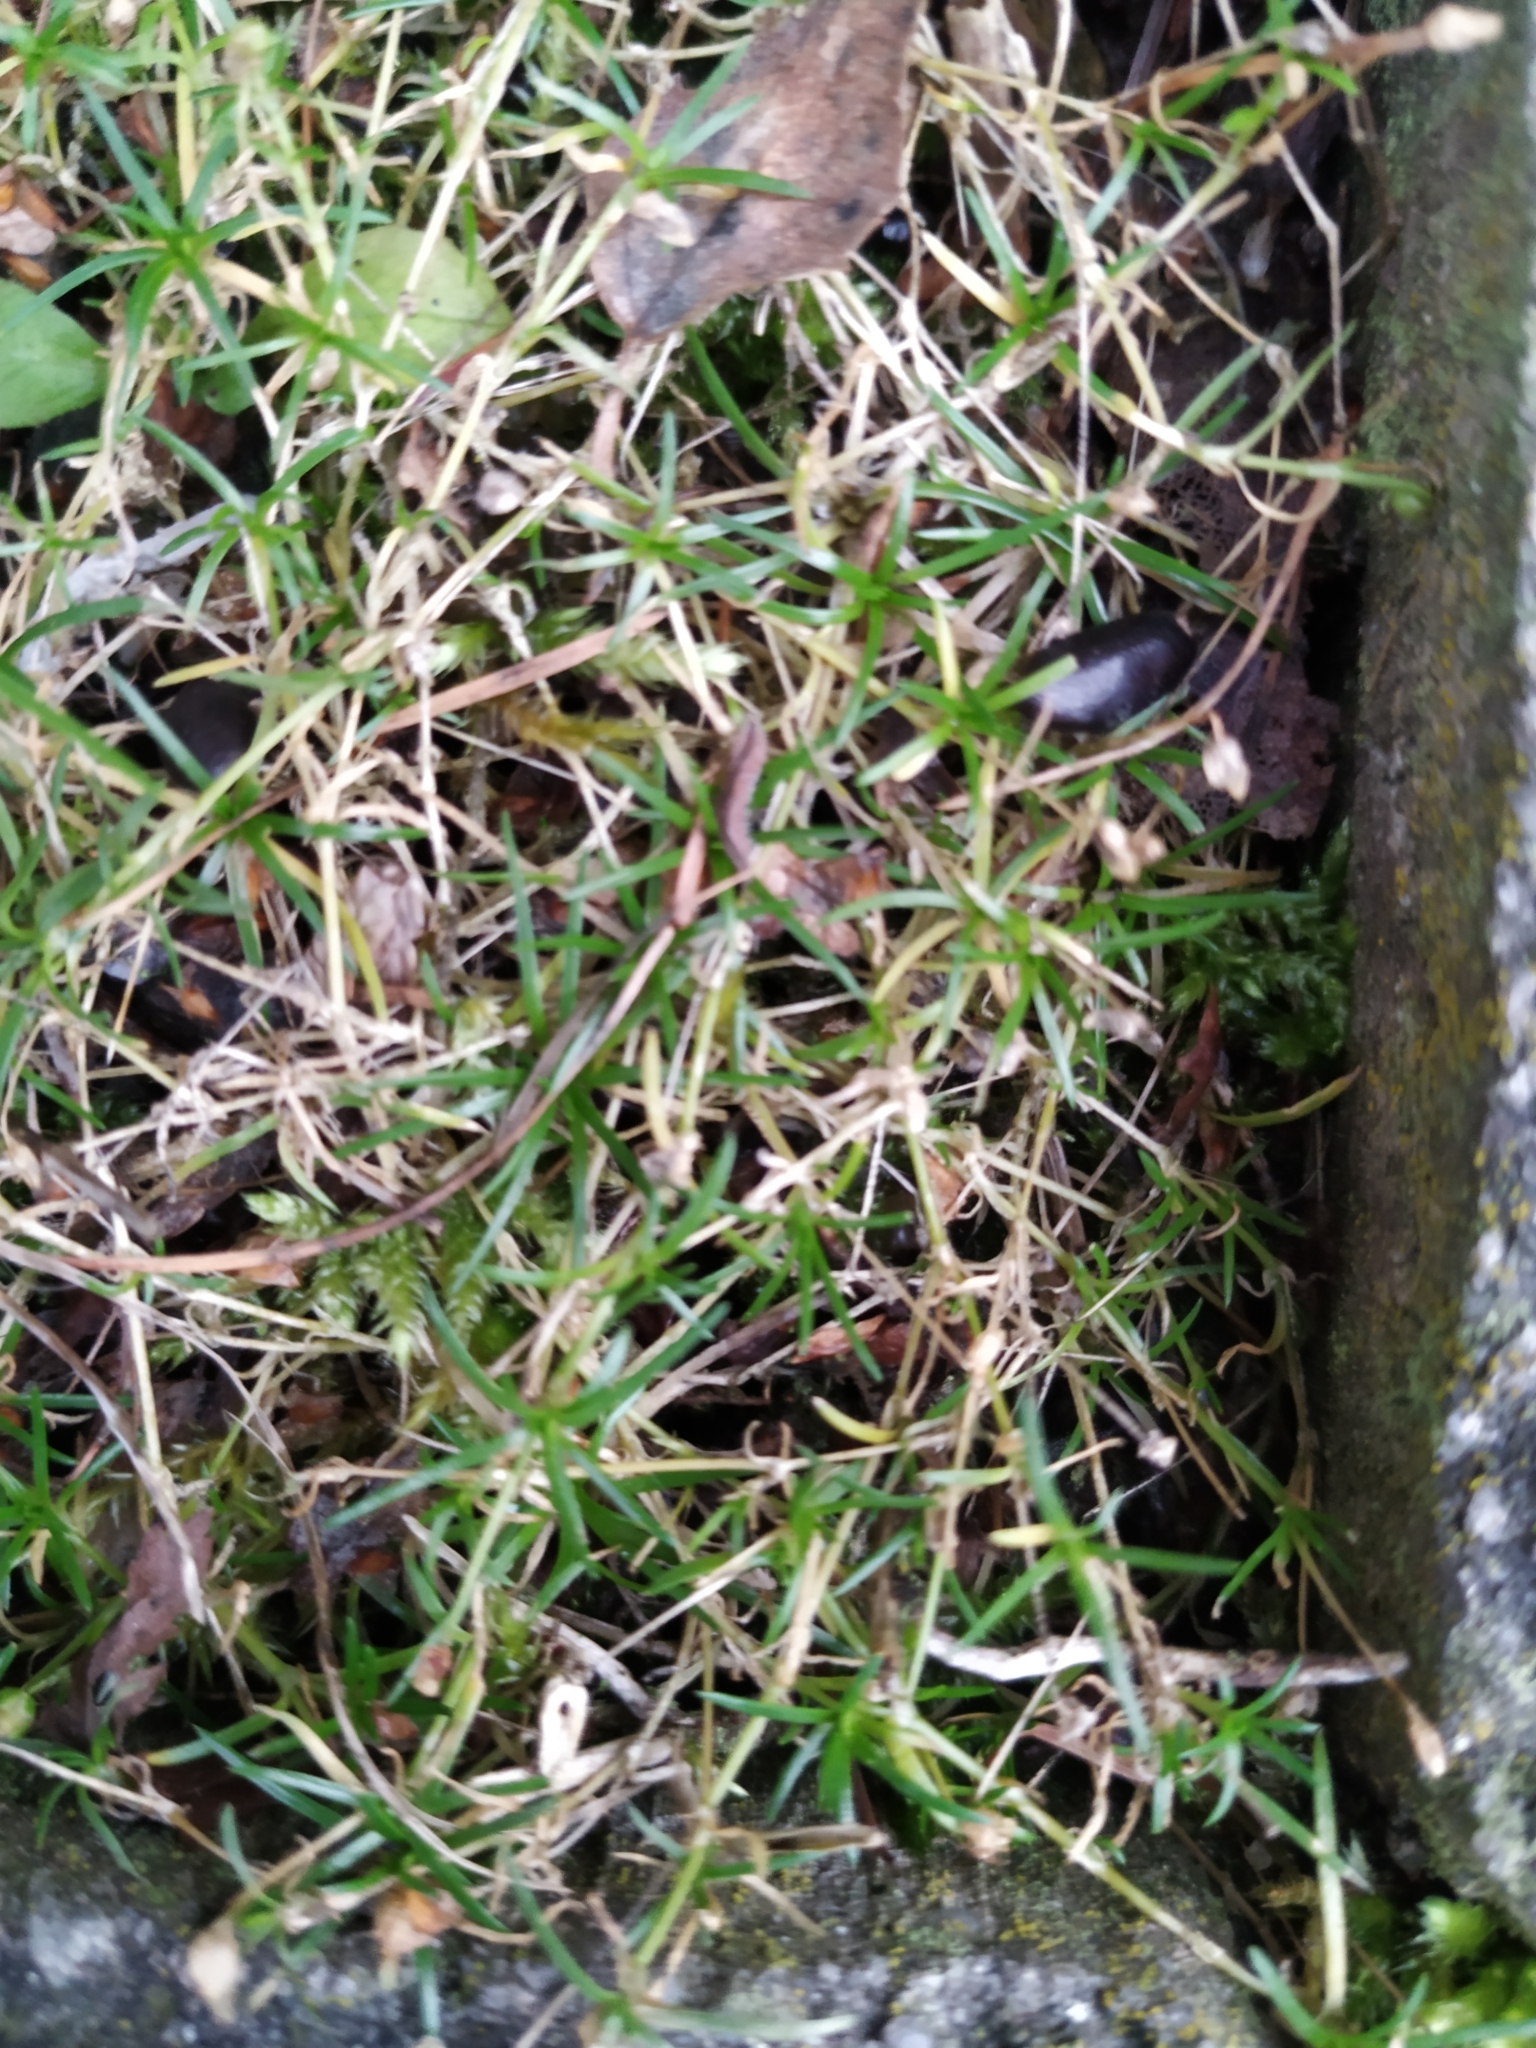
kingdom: Plantae
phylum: Tracheophyta
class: Magnoliopsida
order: Caryophyllales
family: Caryophyllaceae
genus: Sagina
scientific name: Sagina procumbens
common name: Procumbent pearlwort
